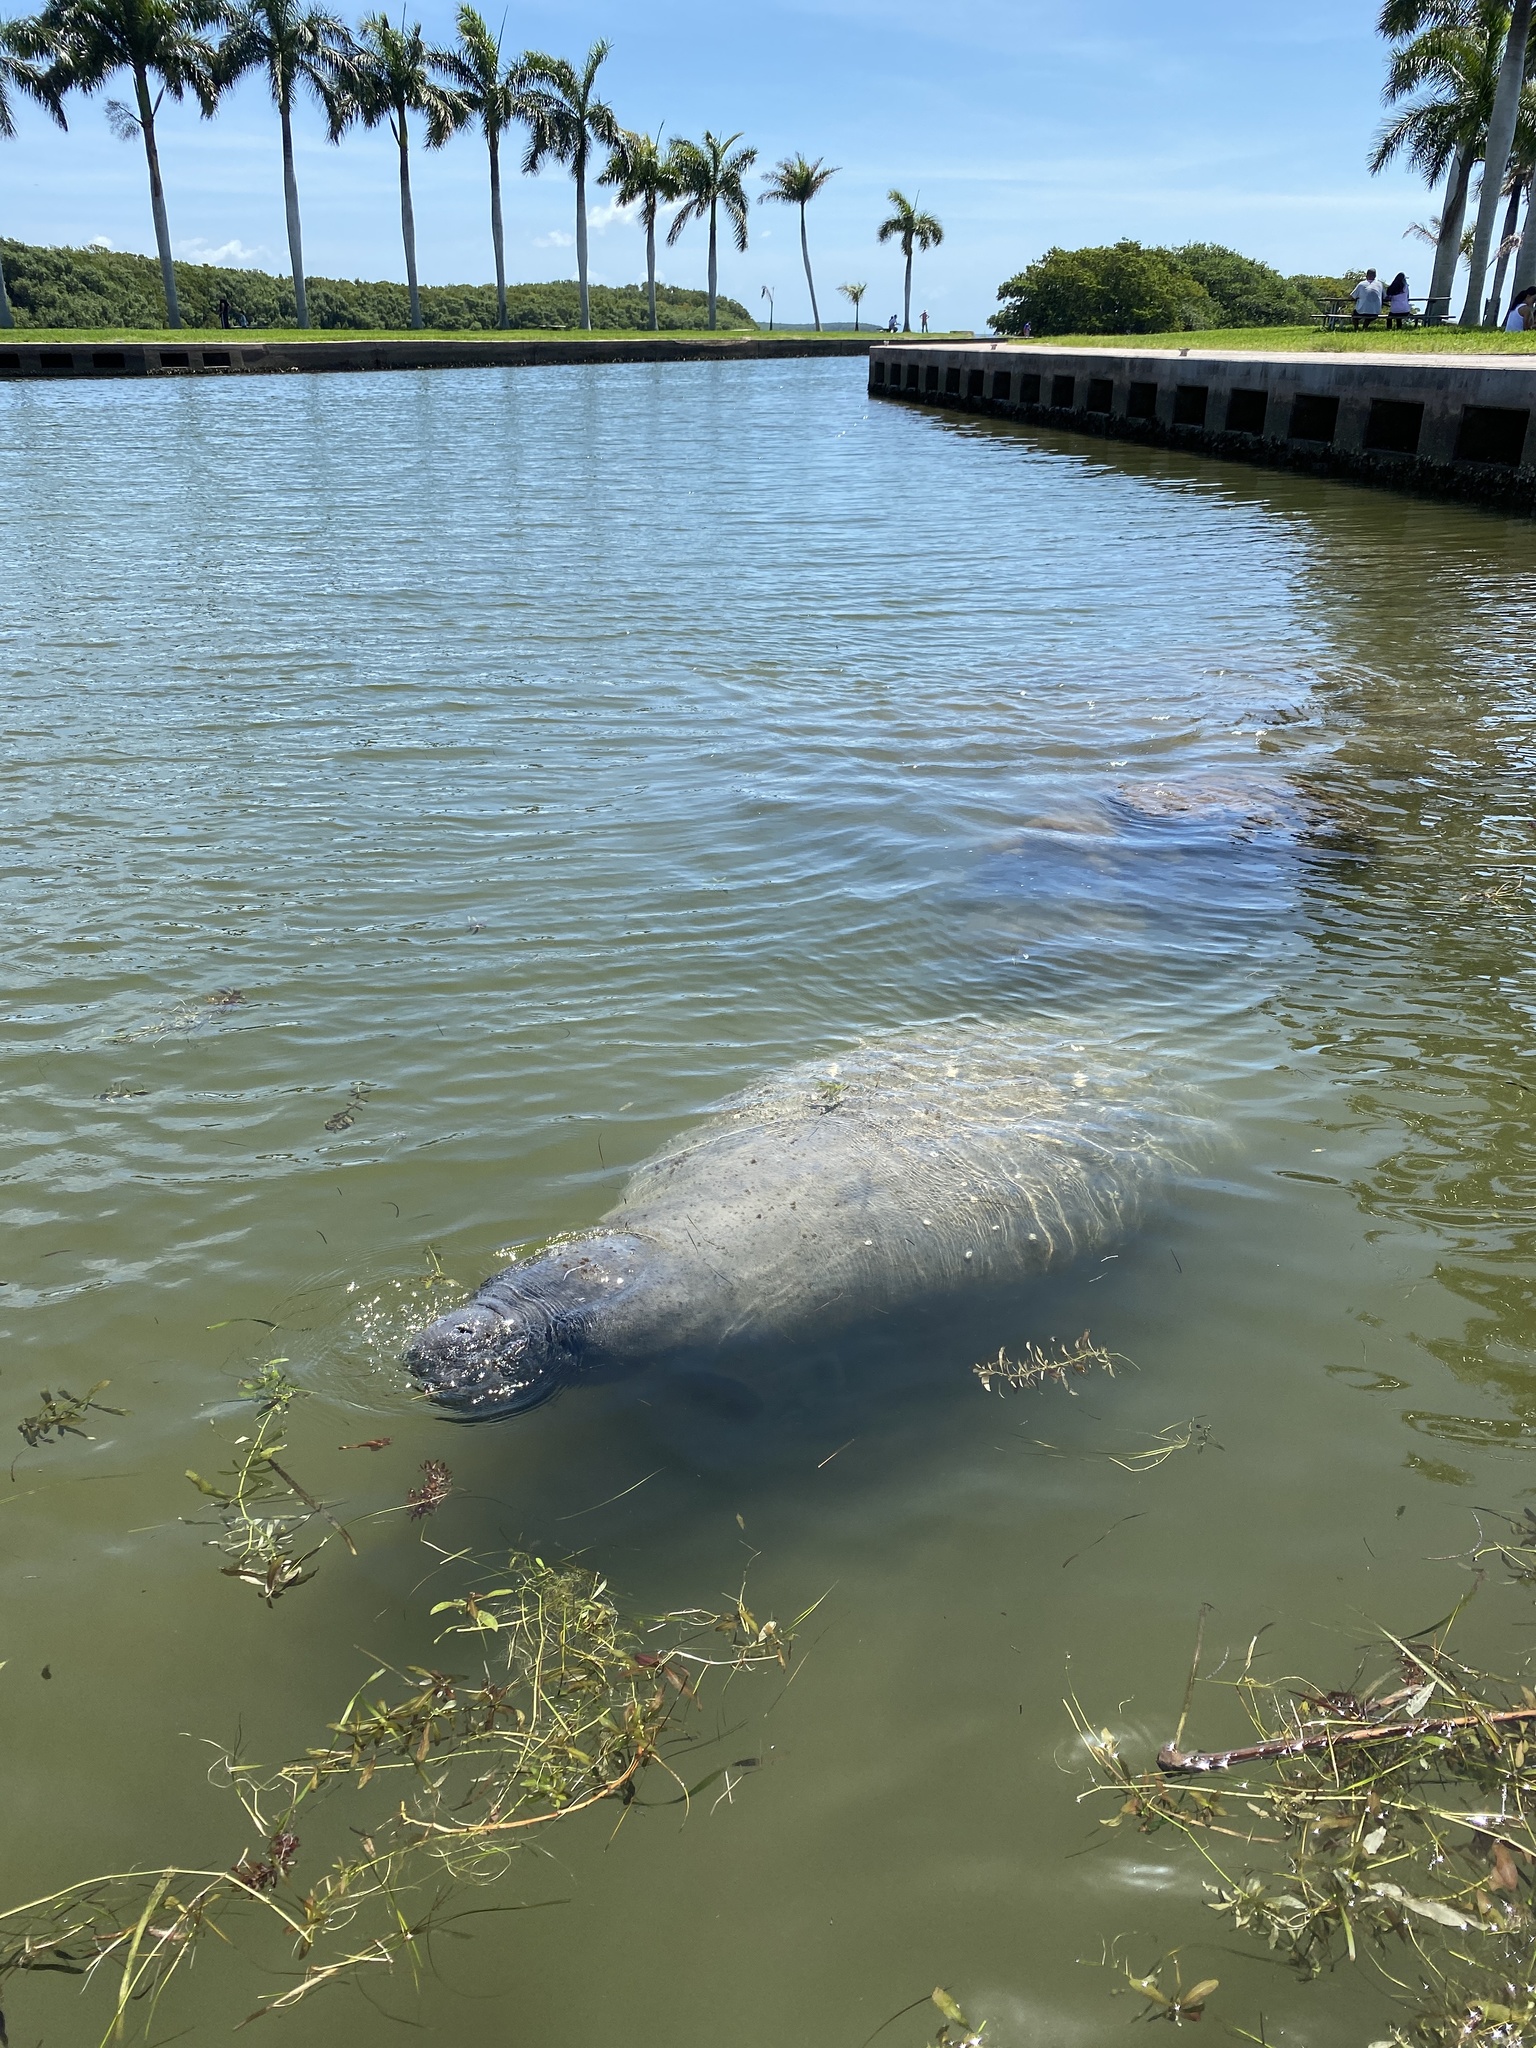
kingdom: Animalia
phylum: Chordata
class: Mammalia
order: Sirenia
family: Trichechidae
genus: Trichechus
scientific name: Trichechus manatus
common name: West indian manatee
